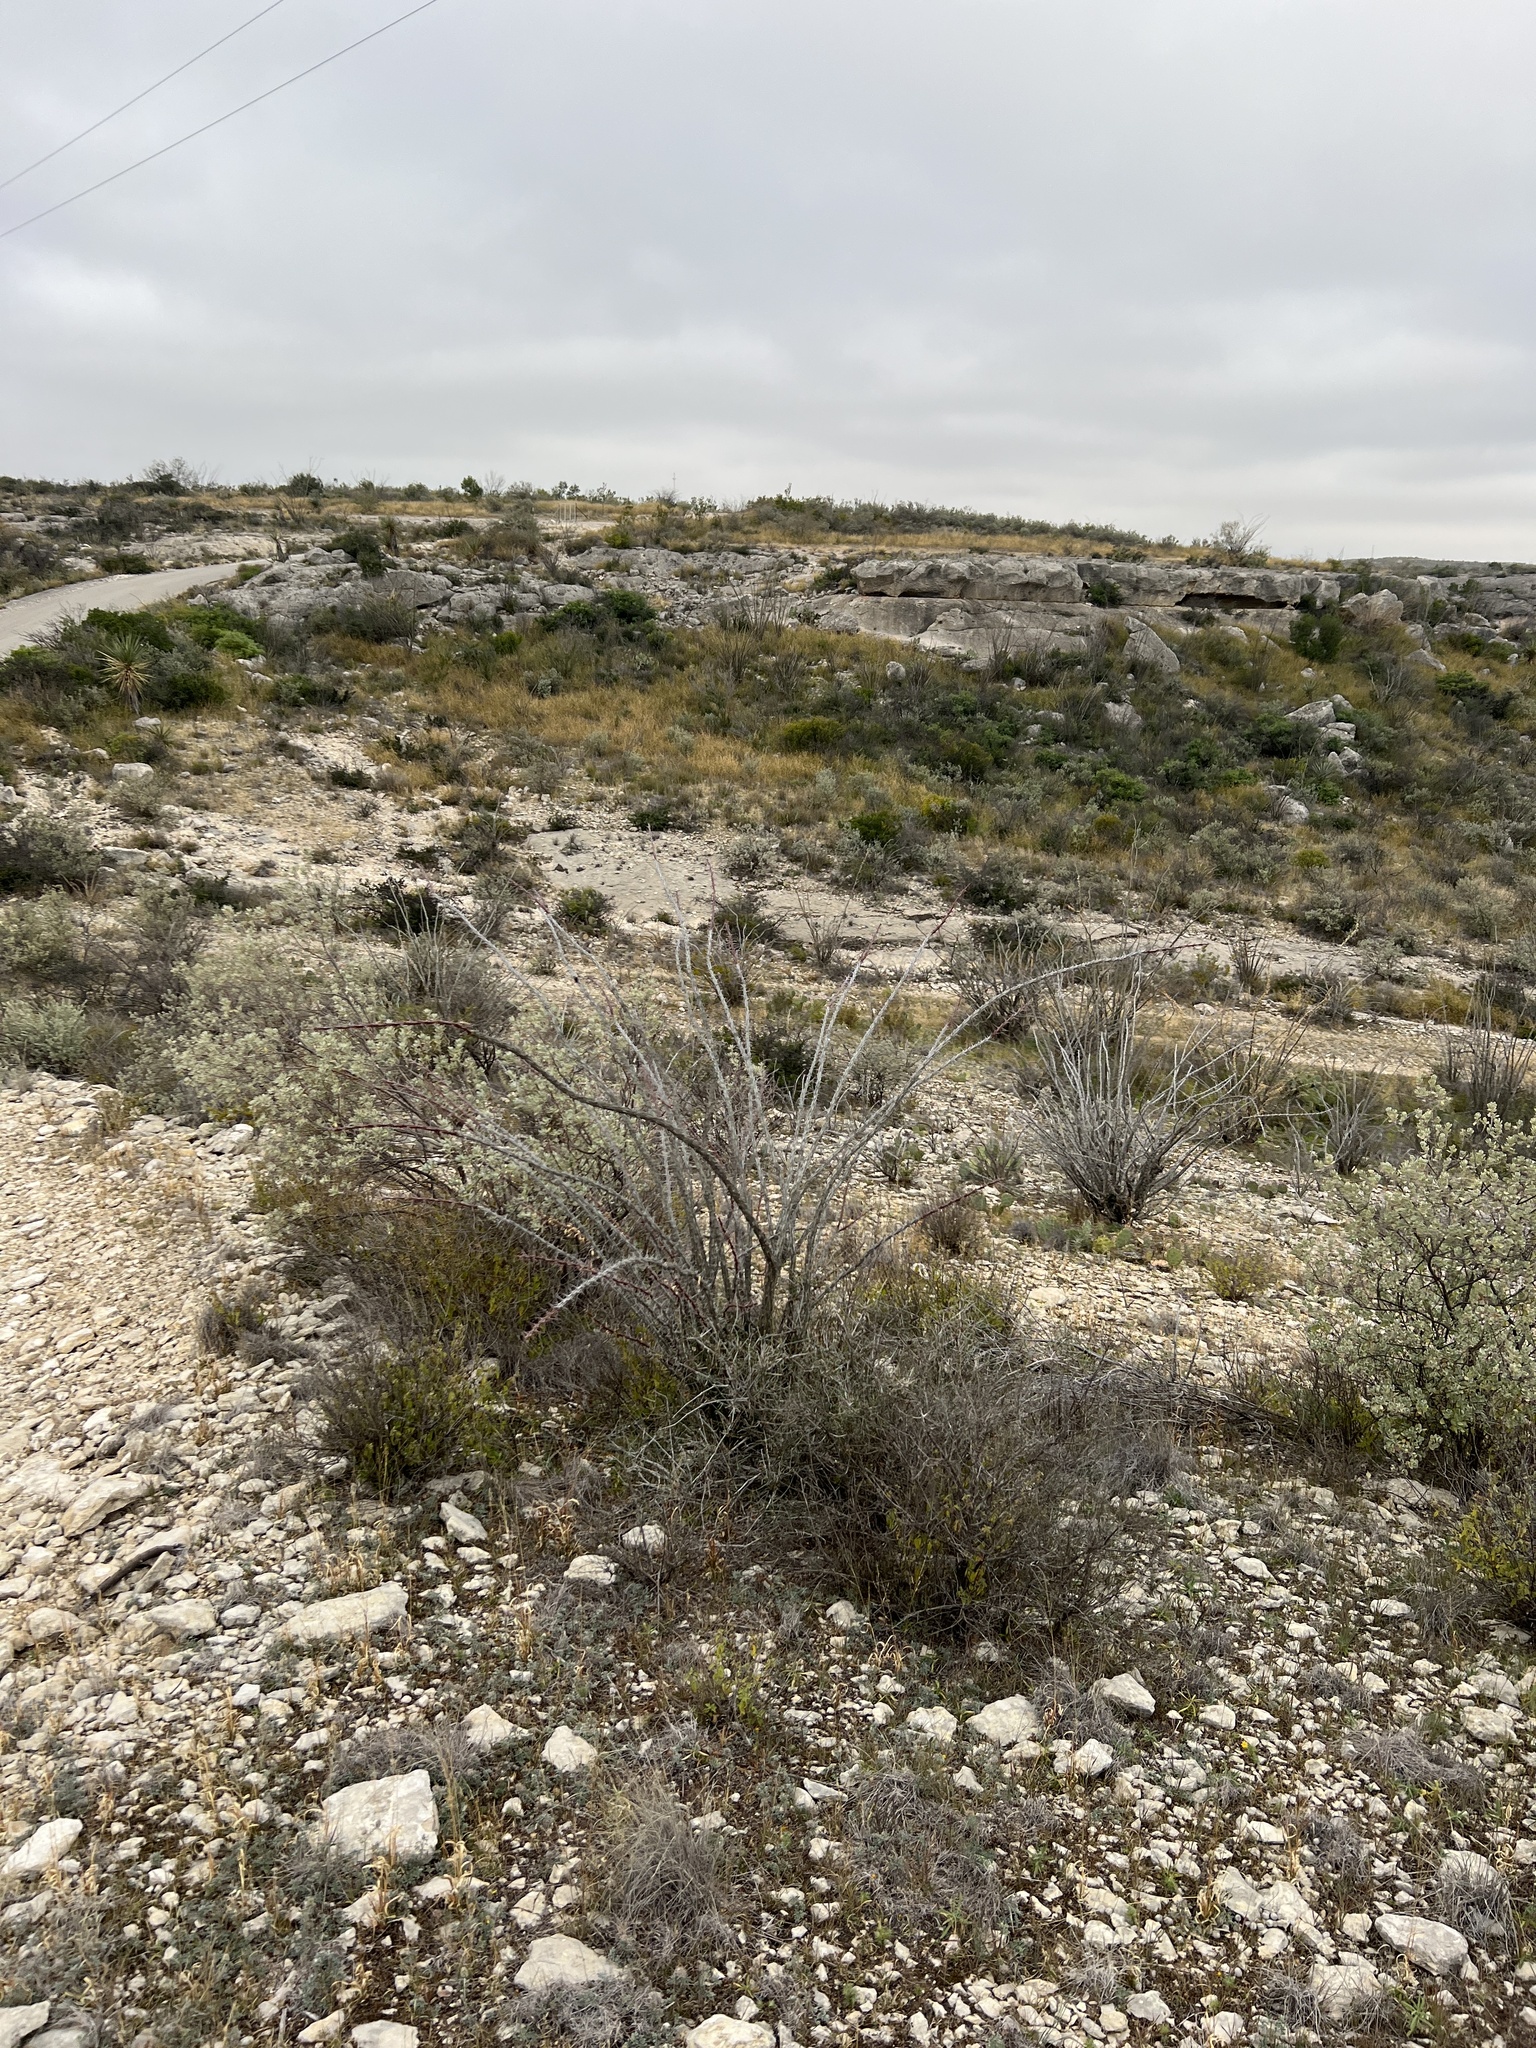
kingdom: Plantae
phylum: Tracheophyta
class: Magnoliopsida
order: Ericales
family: Fouquieriaceae
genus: Fouquieria
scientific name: Fouquieria splendens
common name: Vine-cactus
